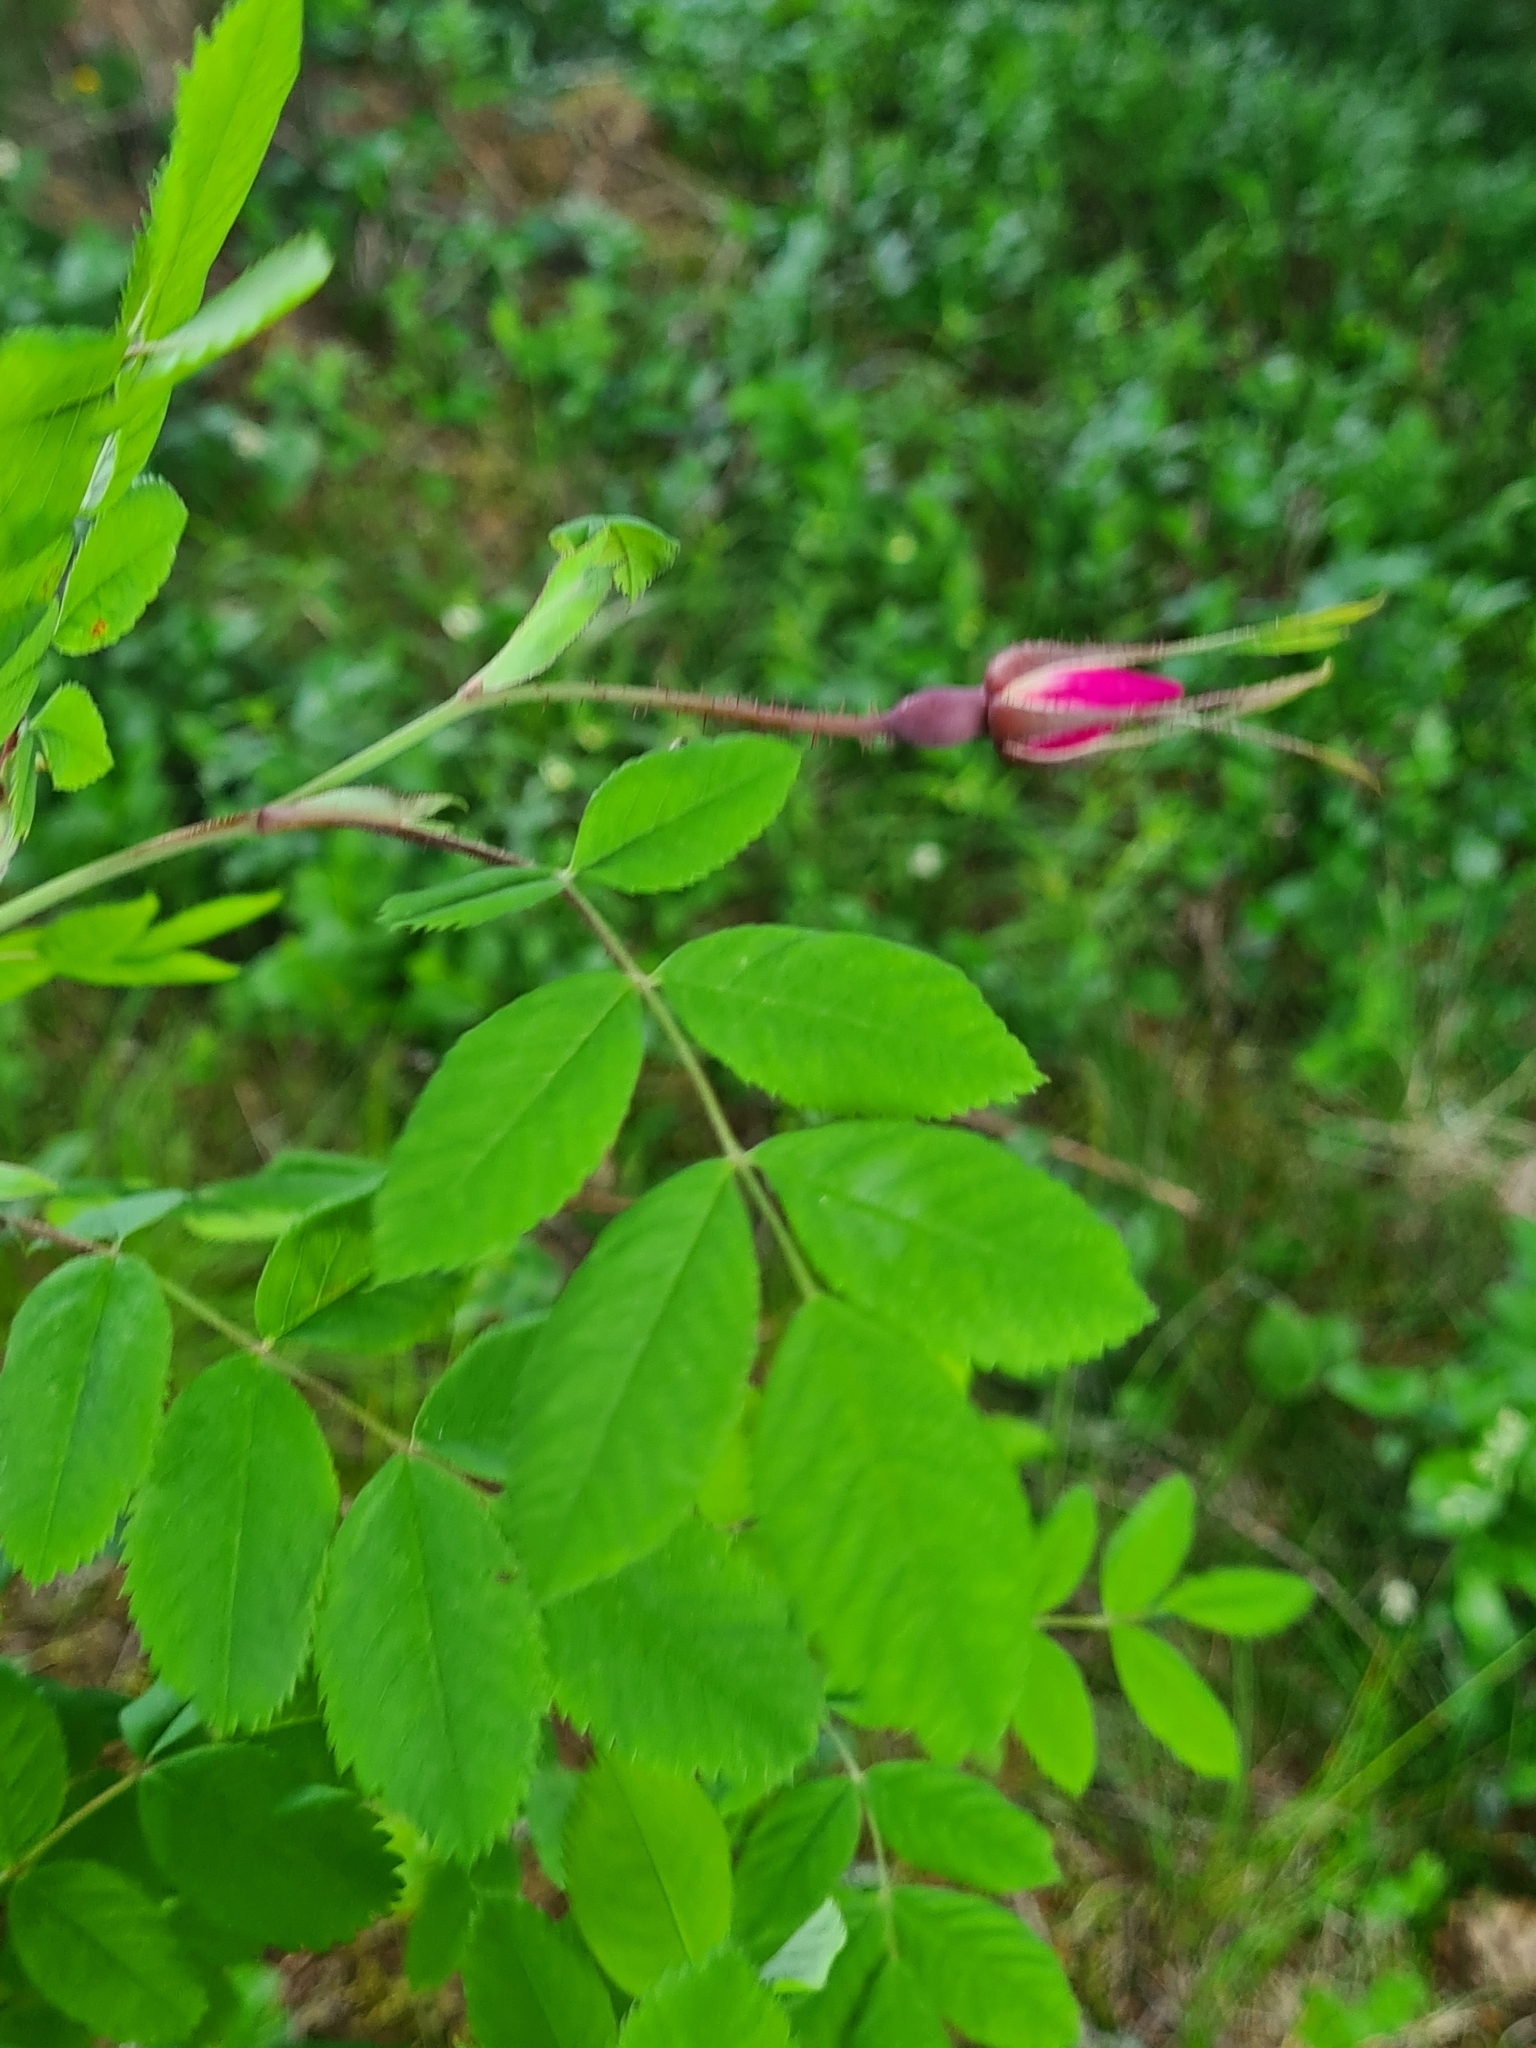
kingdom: Plantae
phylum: Tracheophyta
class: Magnoliopsida
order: Rosales
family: Rosaceae
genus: Rosa
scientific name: Rosa pendulina
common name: Alpine rose
